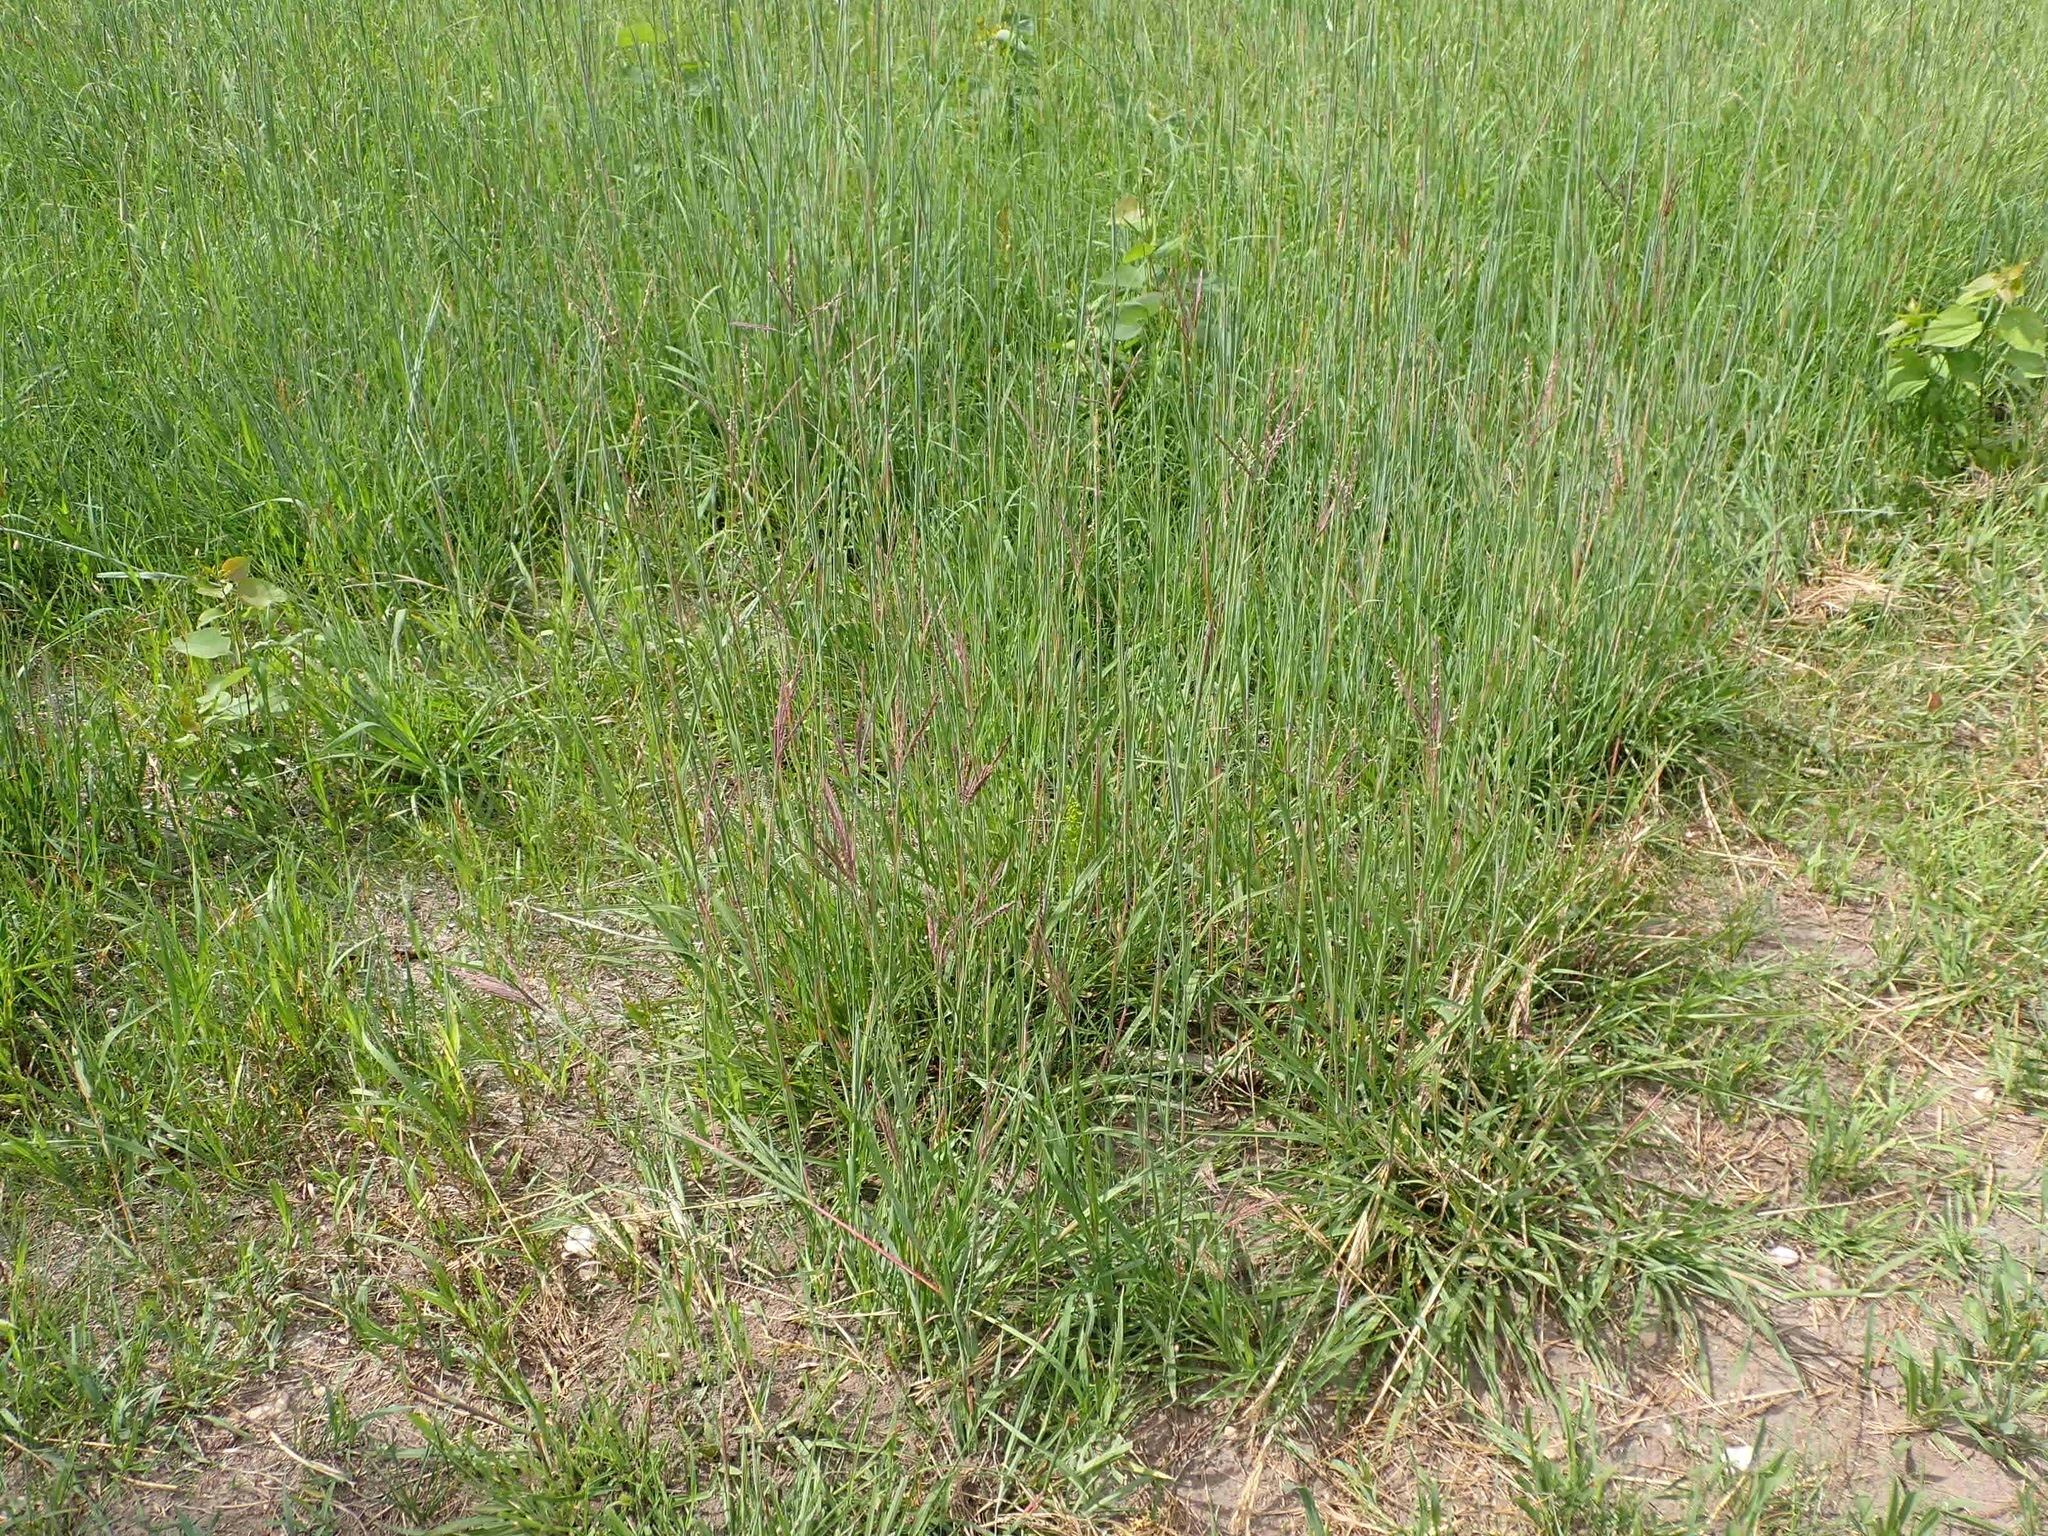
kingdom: Plantae
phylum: Tracheophyta
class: Liliopsida
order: Poales
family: Poaceae
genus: Andropogon
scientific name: Andropogon gerardi
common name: Big bluestem
